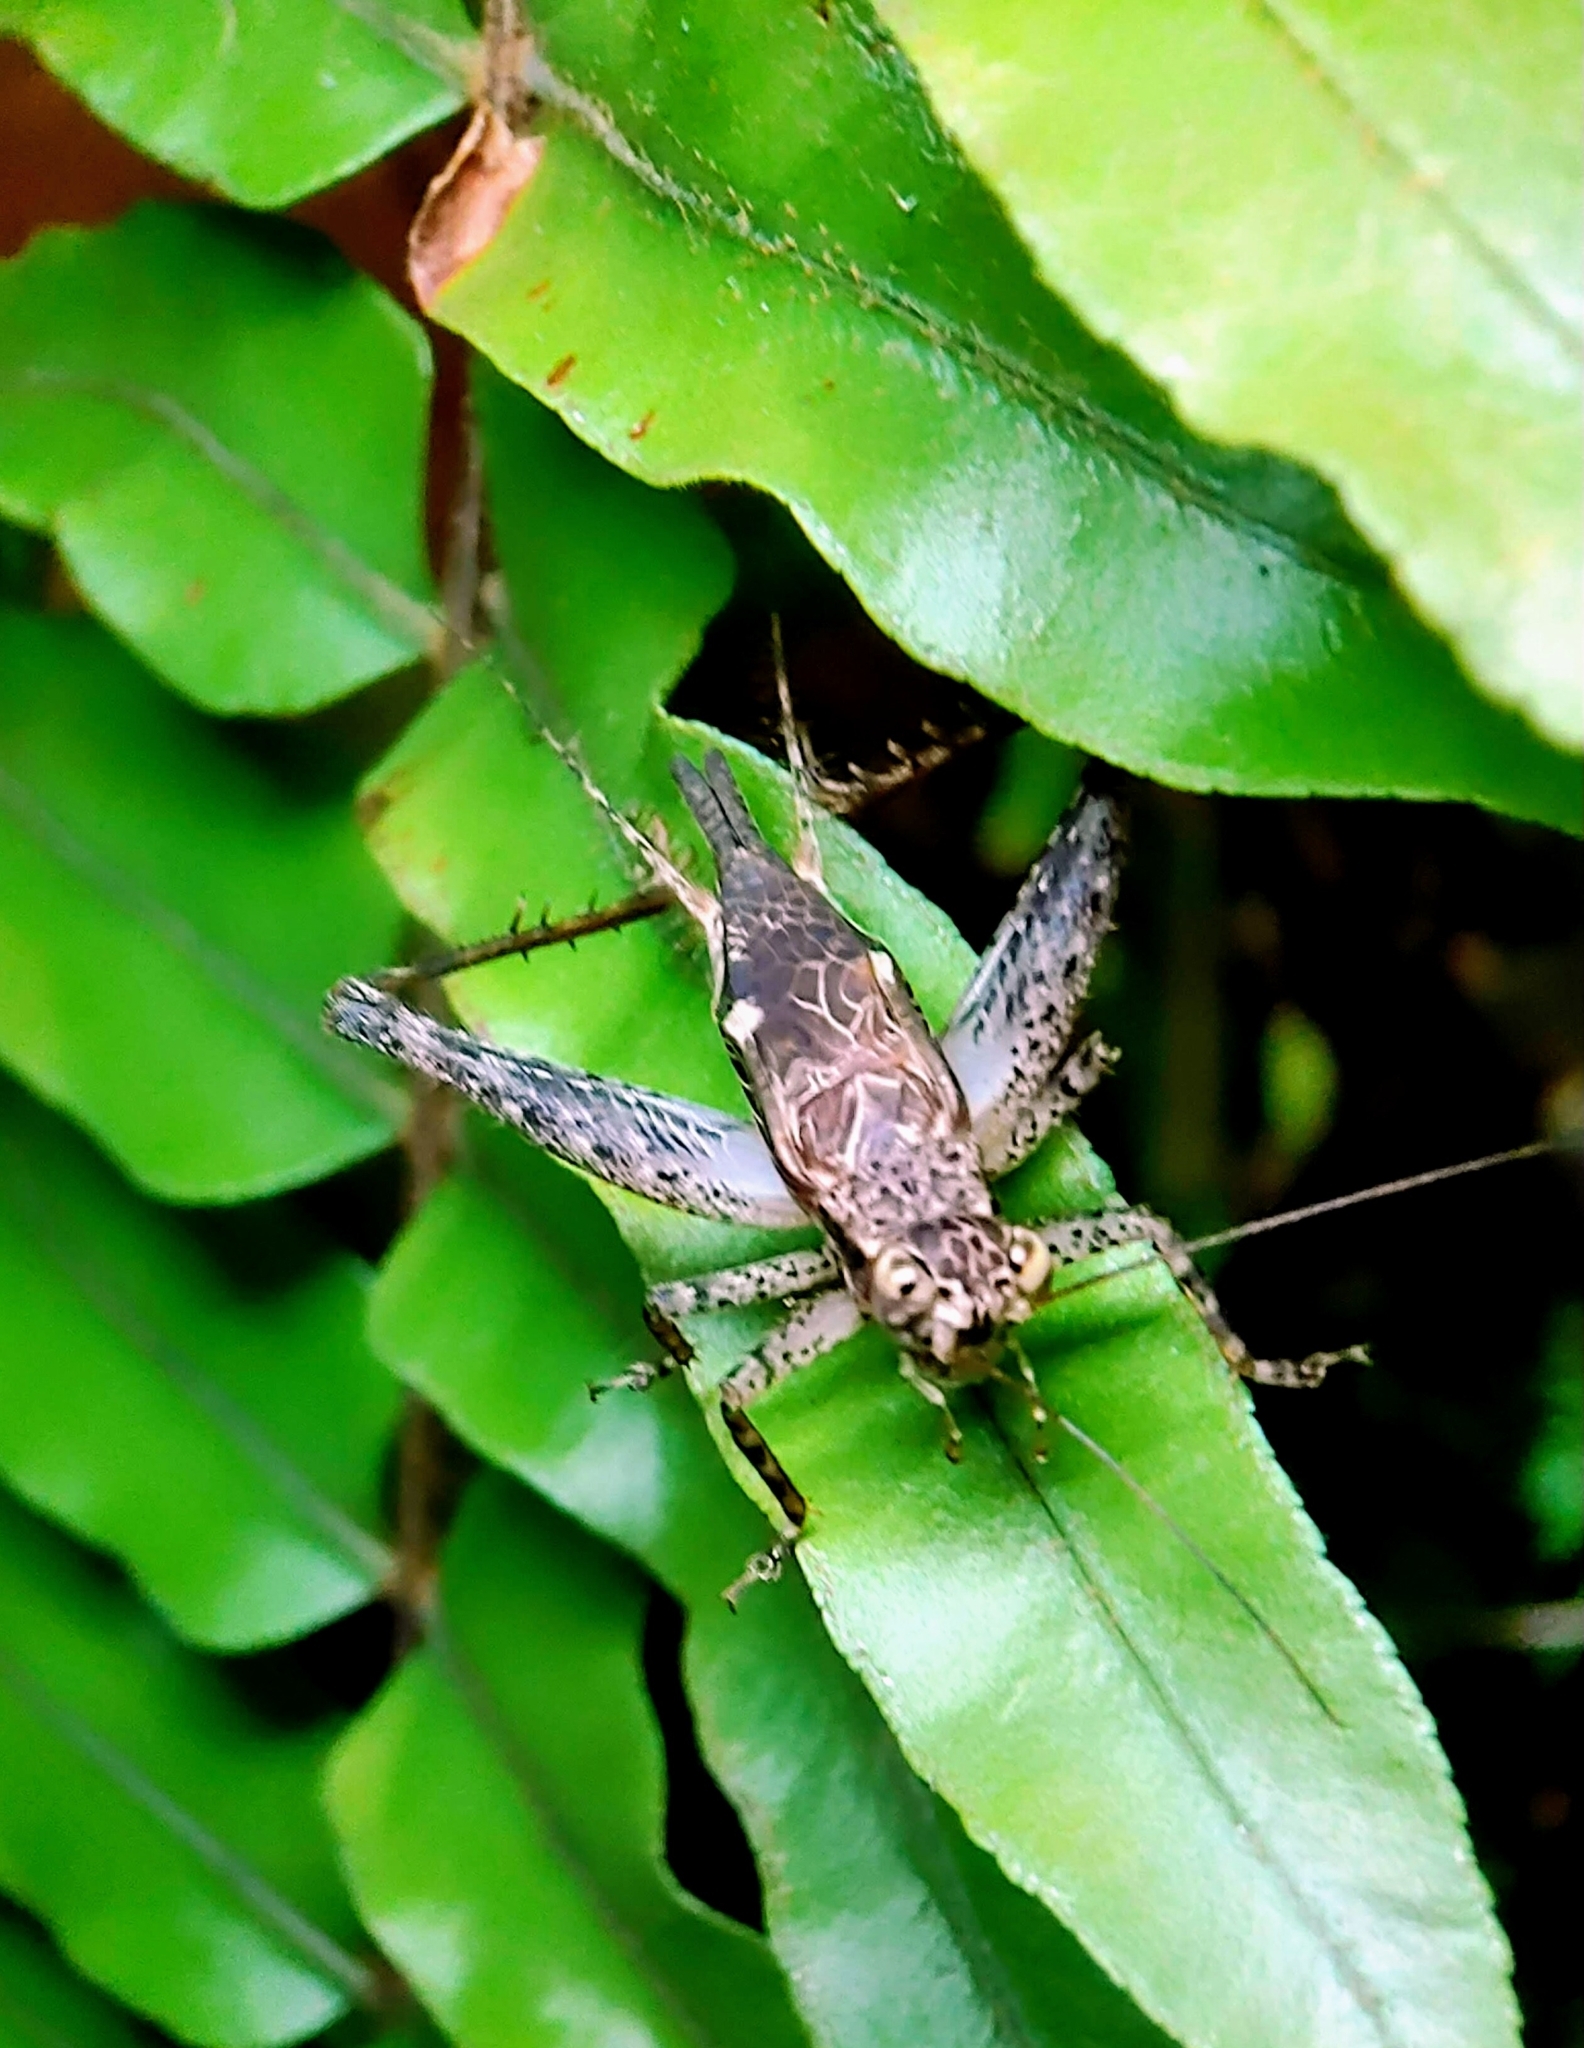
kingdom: Animalia
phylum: Arthropoda
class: Insecta
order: Orthoptera
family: Gryllidae
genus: Cardiodactylus
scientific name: Cardiodactylus singapura
